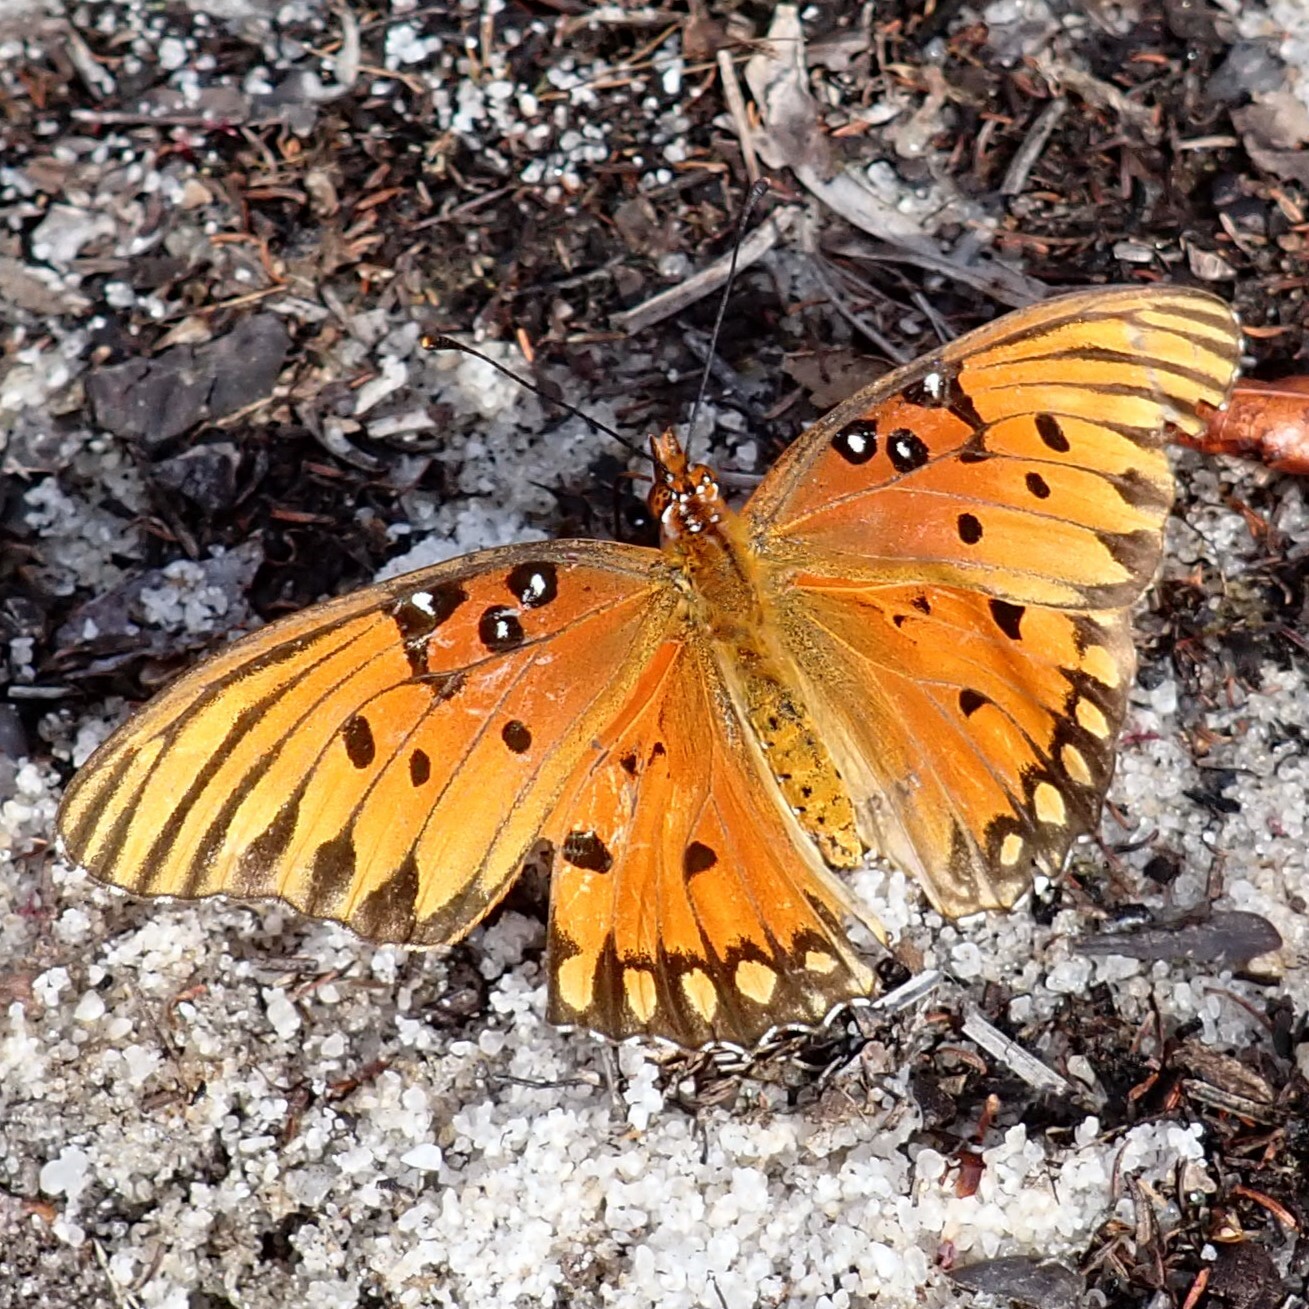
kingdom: Animalia
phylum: Arthropoda
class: Insecta
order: Lepidoptera
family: Nymphalidae
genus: Dione
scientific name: Dione vanillae
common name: Gulf fritillary
